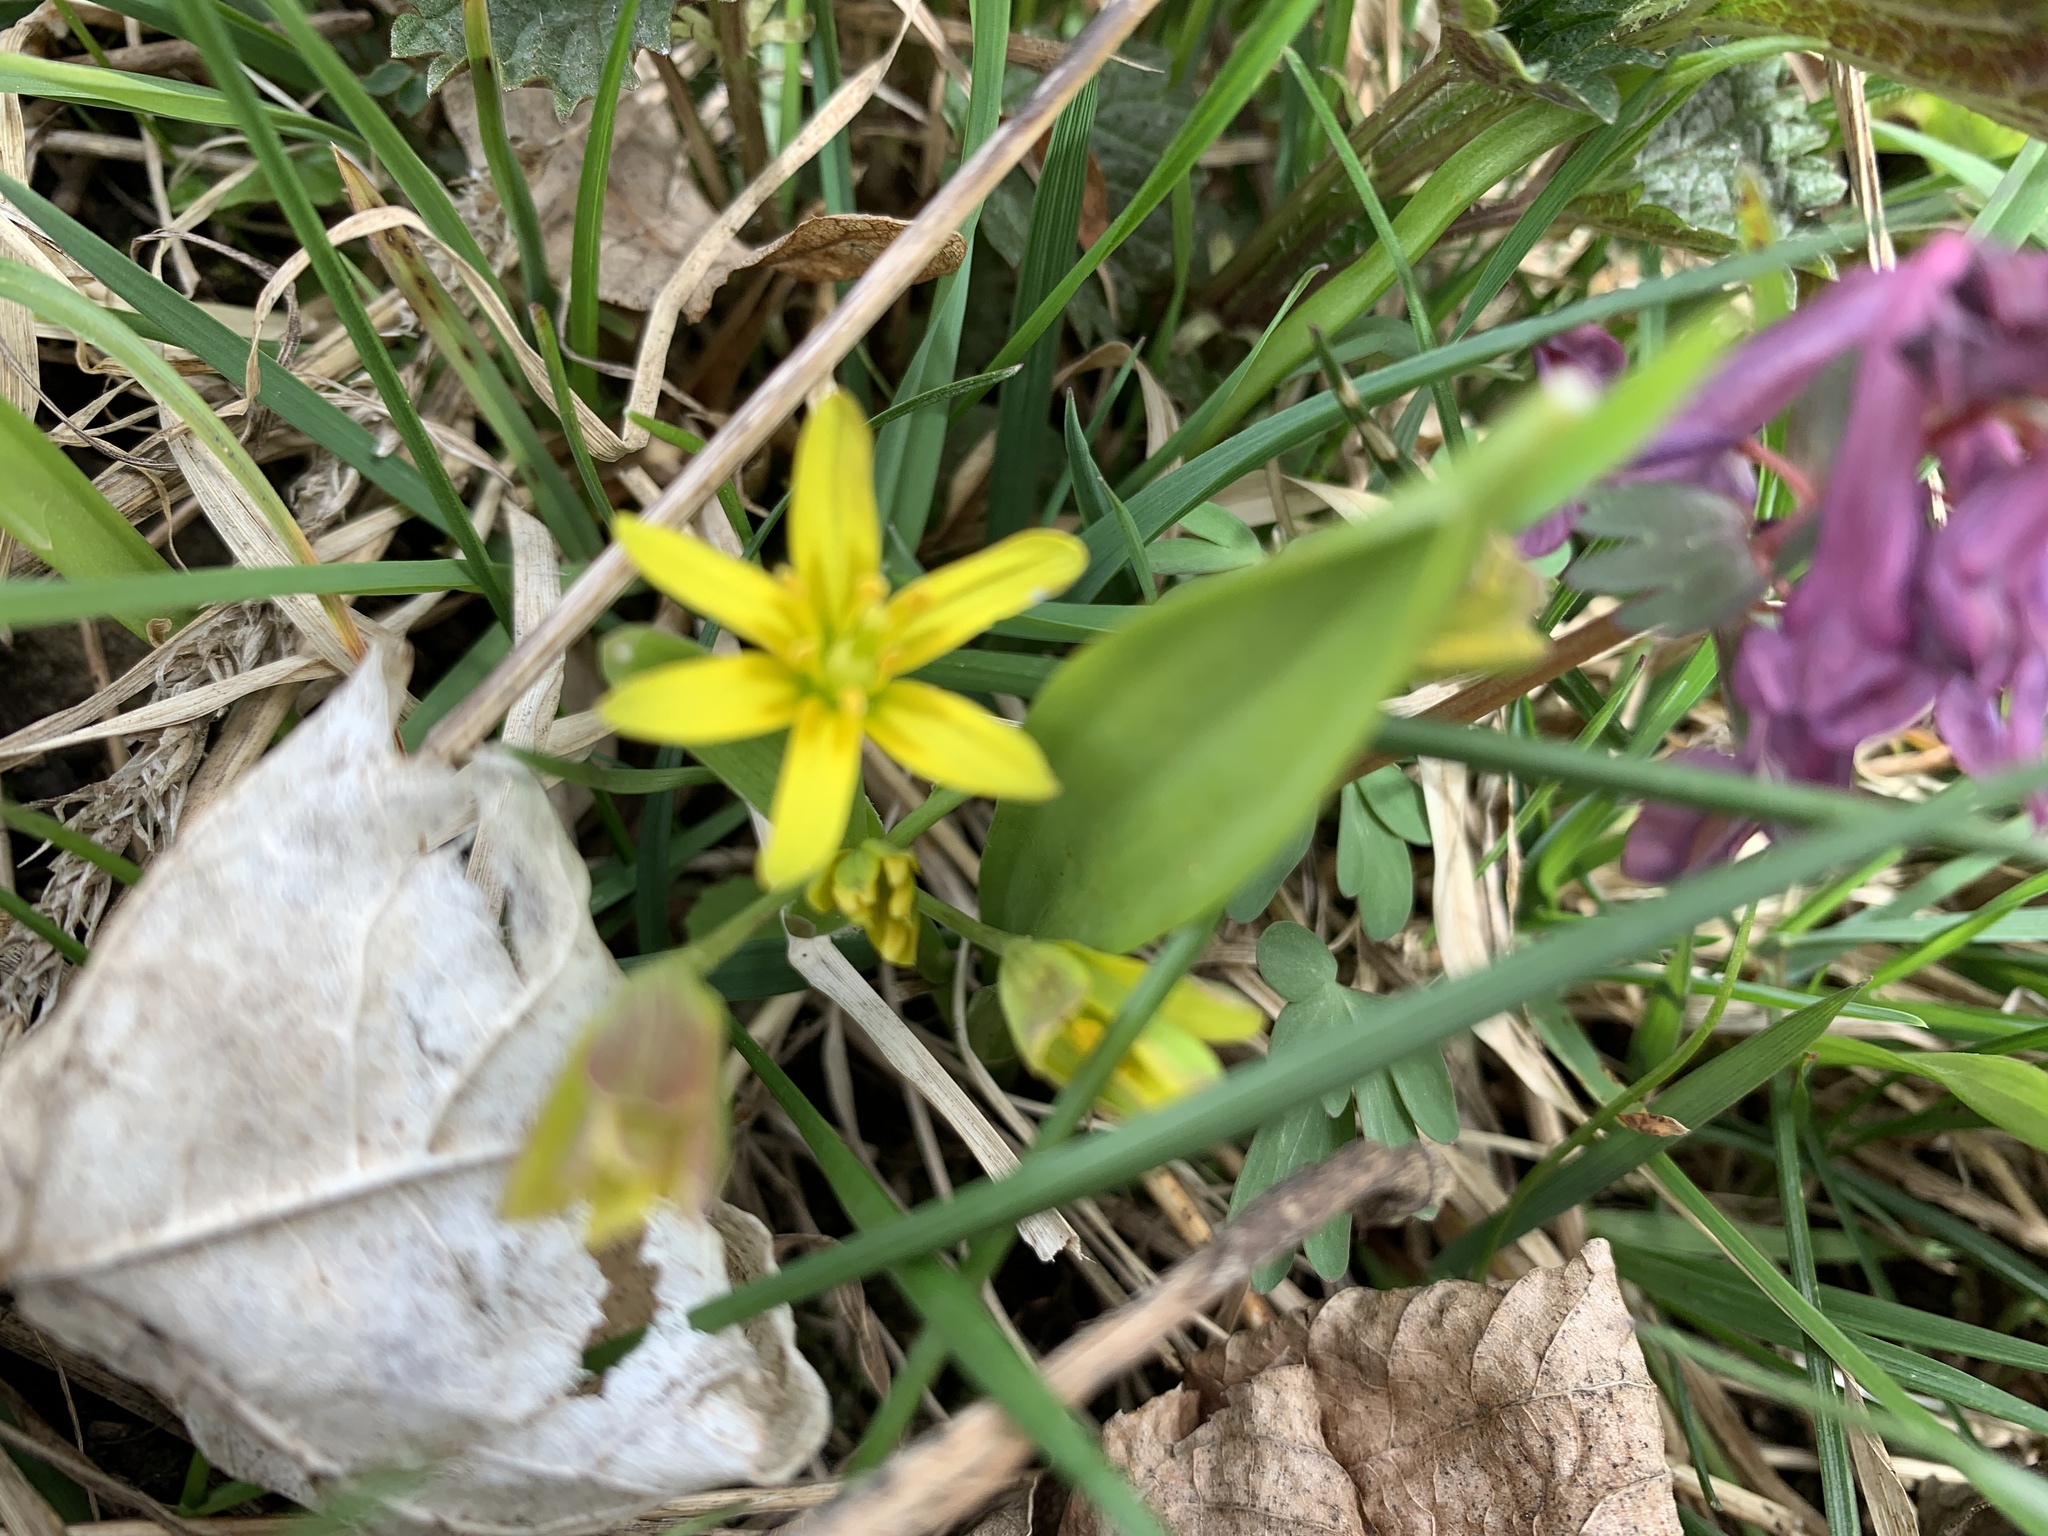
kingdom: Plantae
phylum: Tracheophyta
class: Liliopsida
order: Liliales
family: Liliaceae
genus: Gagea
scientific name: Gagea lutea
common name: Yellow star-of-bethlehem
